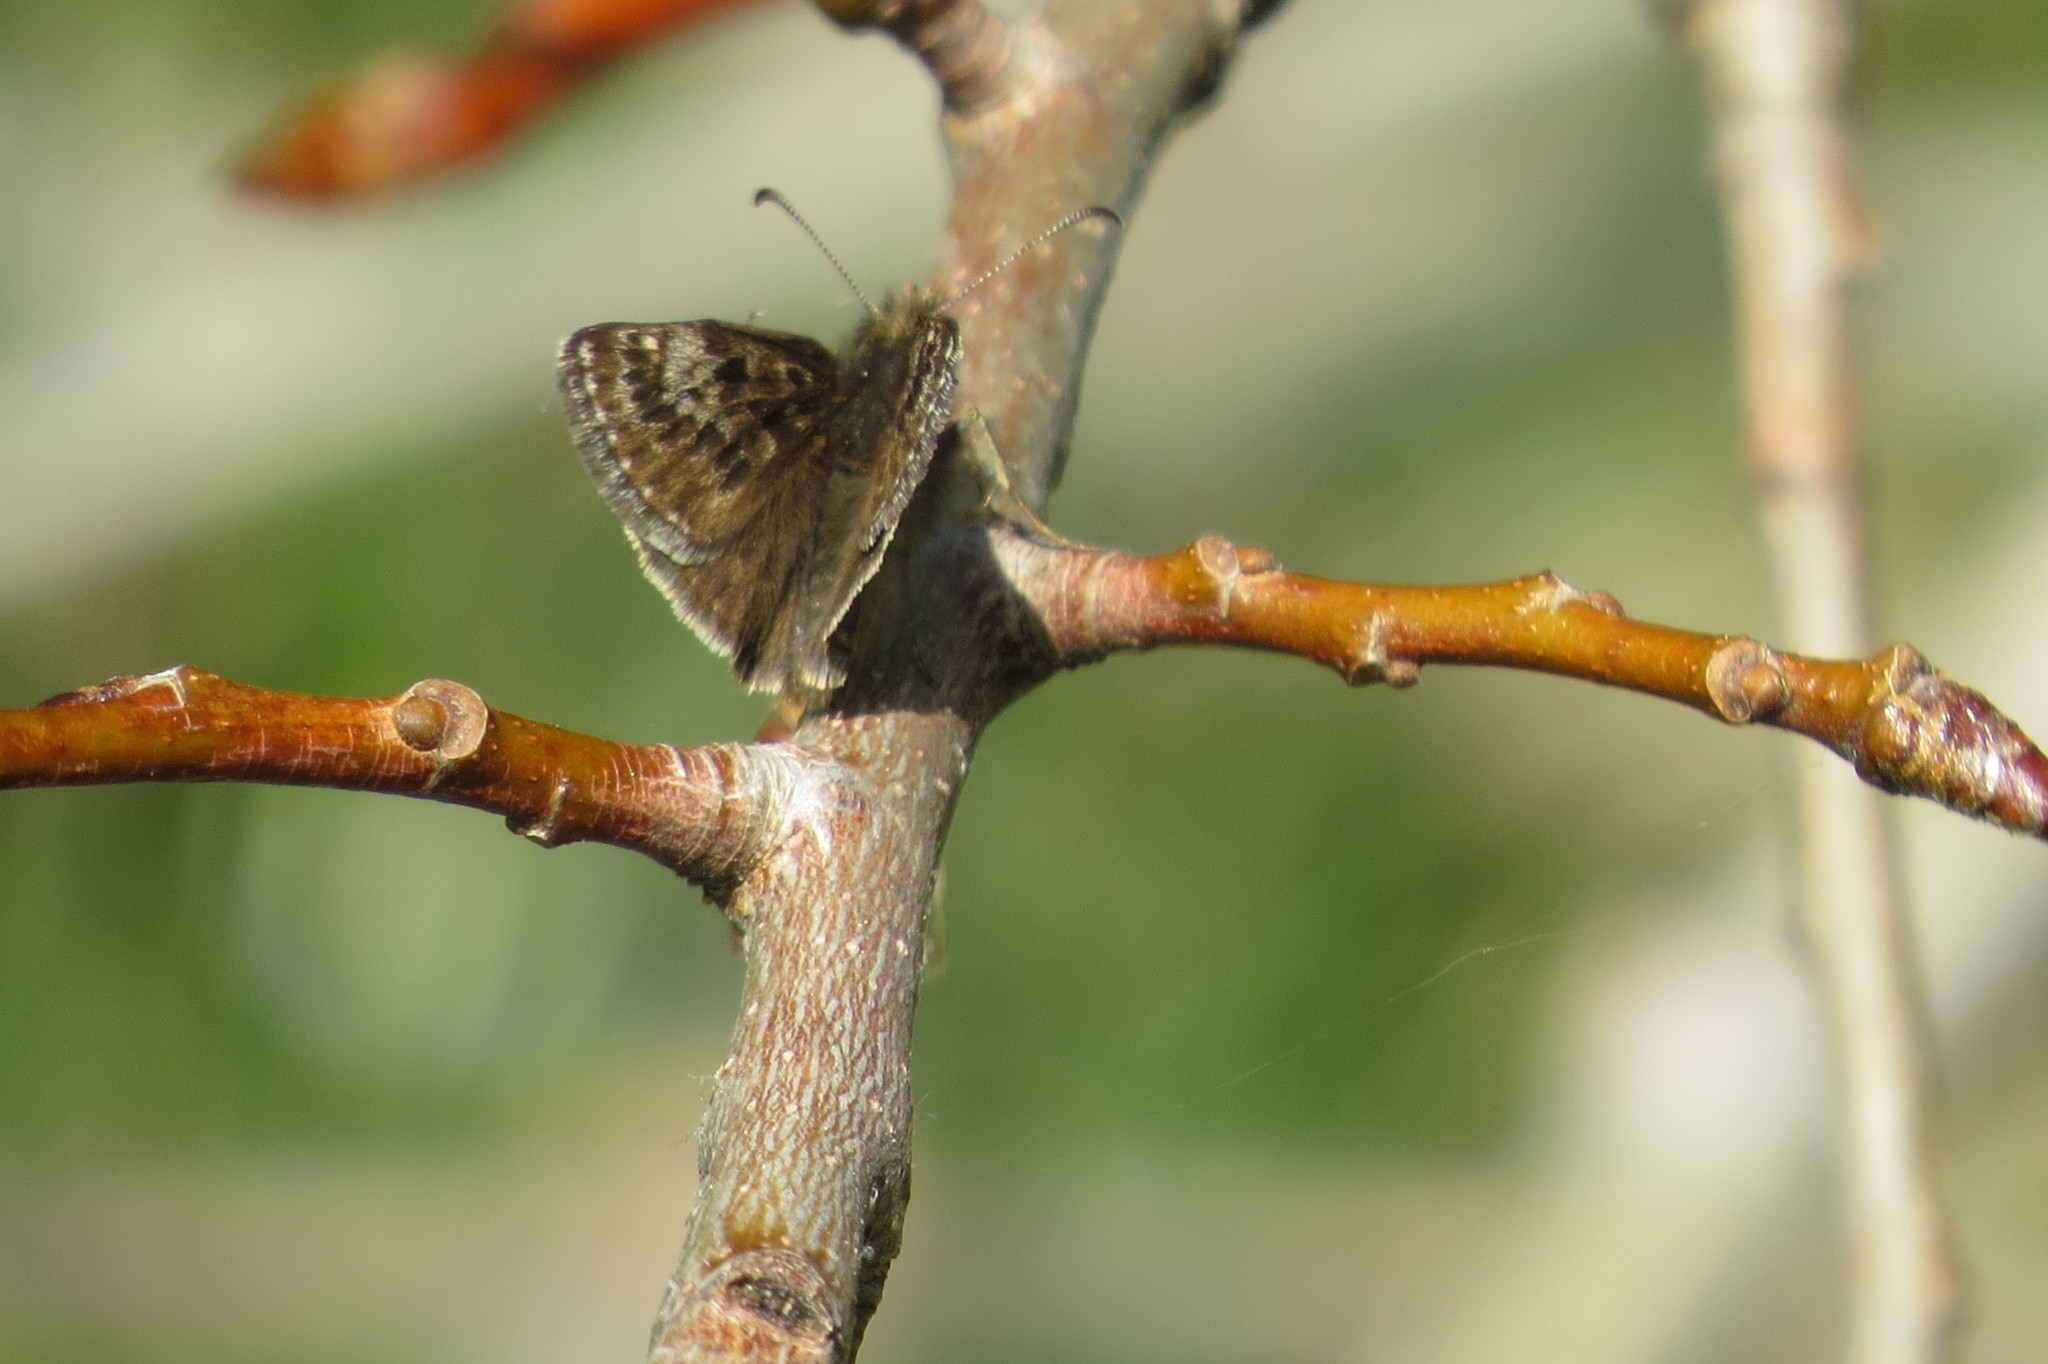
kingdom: Animalia
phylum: Arthropoda
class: Insecta
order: Lepidoptera
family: Hesperiidae
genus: Erynnis
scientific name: Erynnis tages
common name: Dingy skipper
